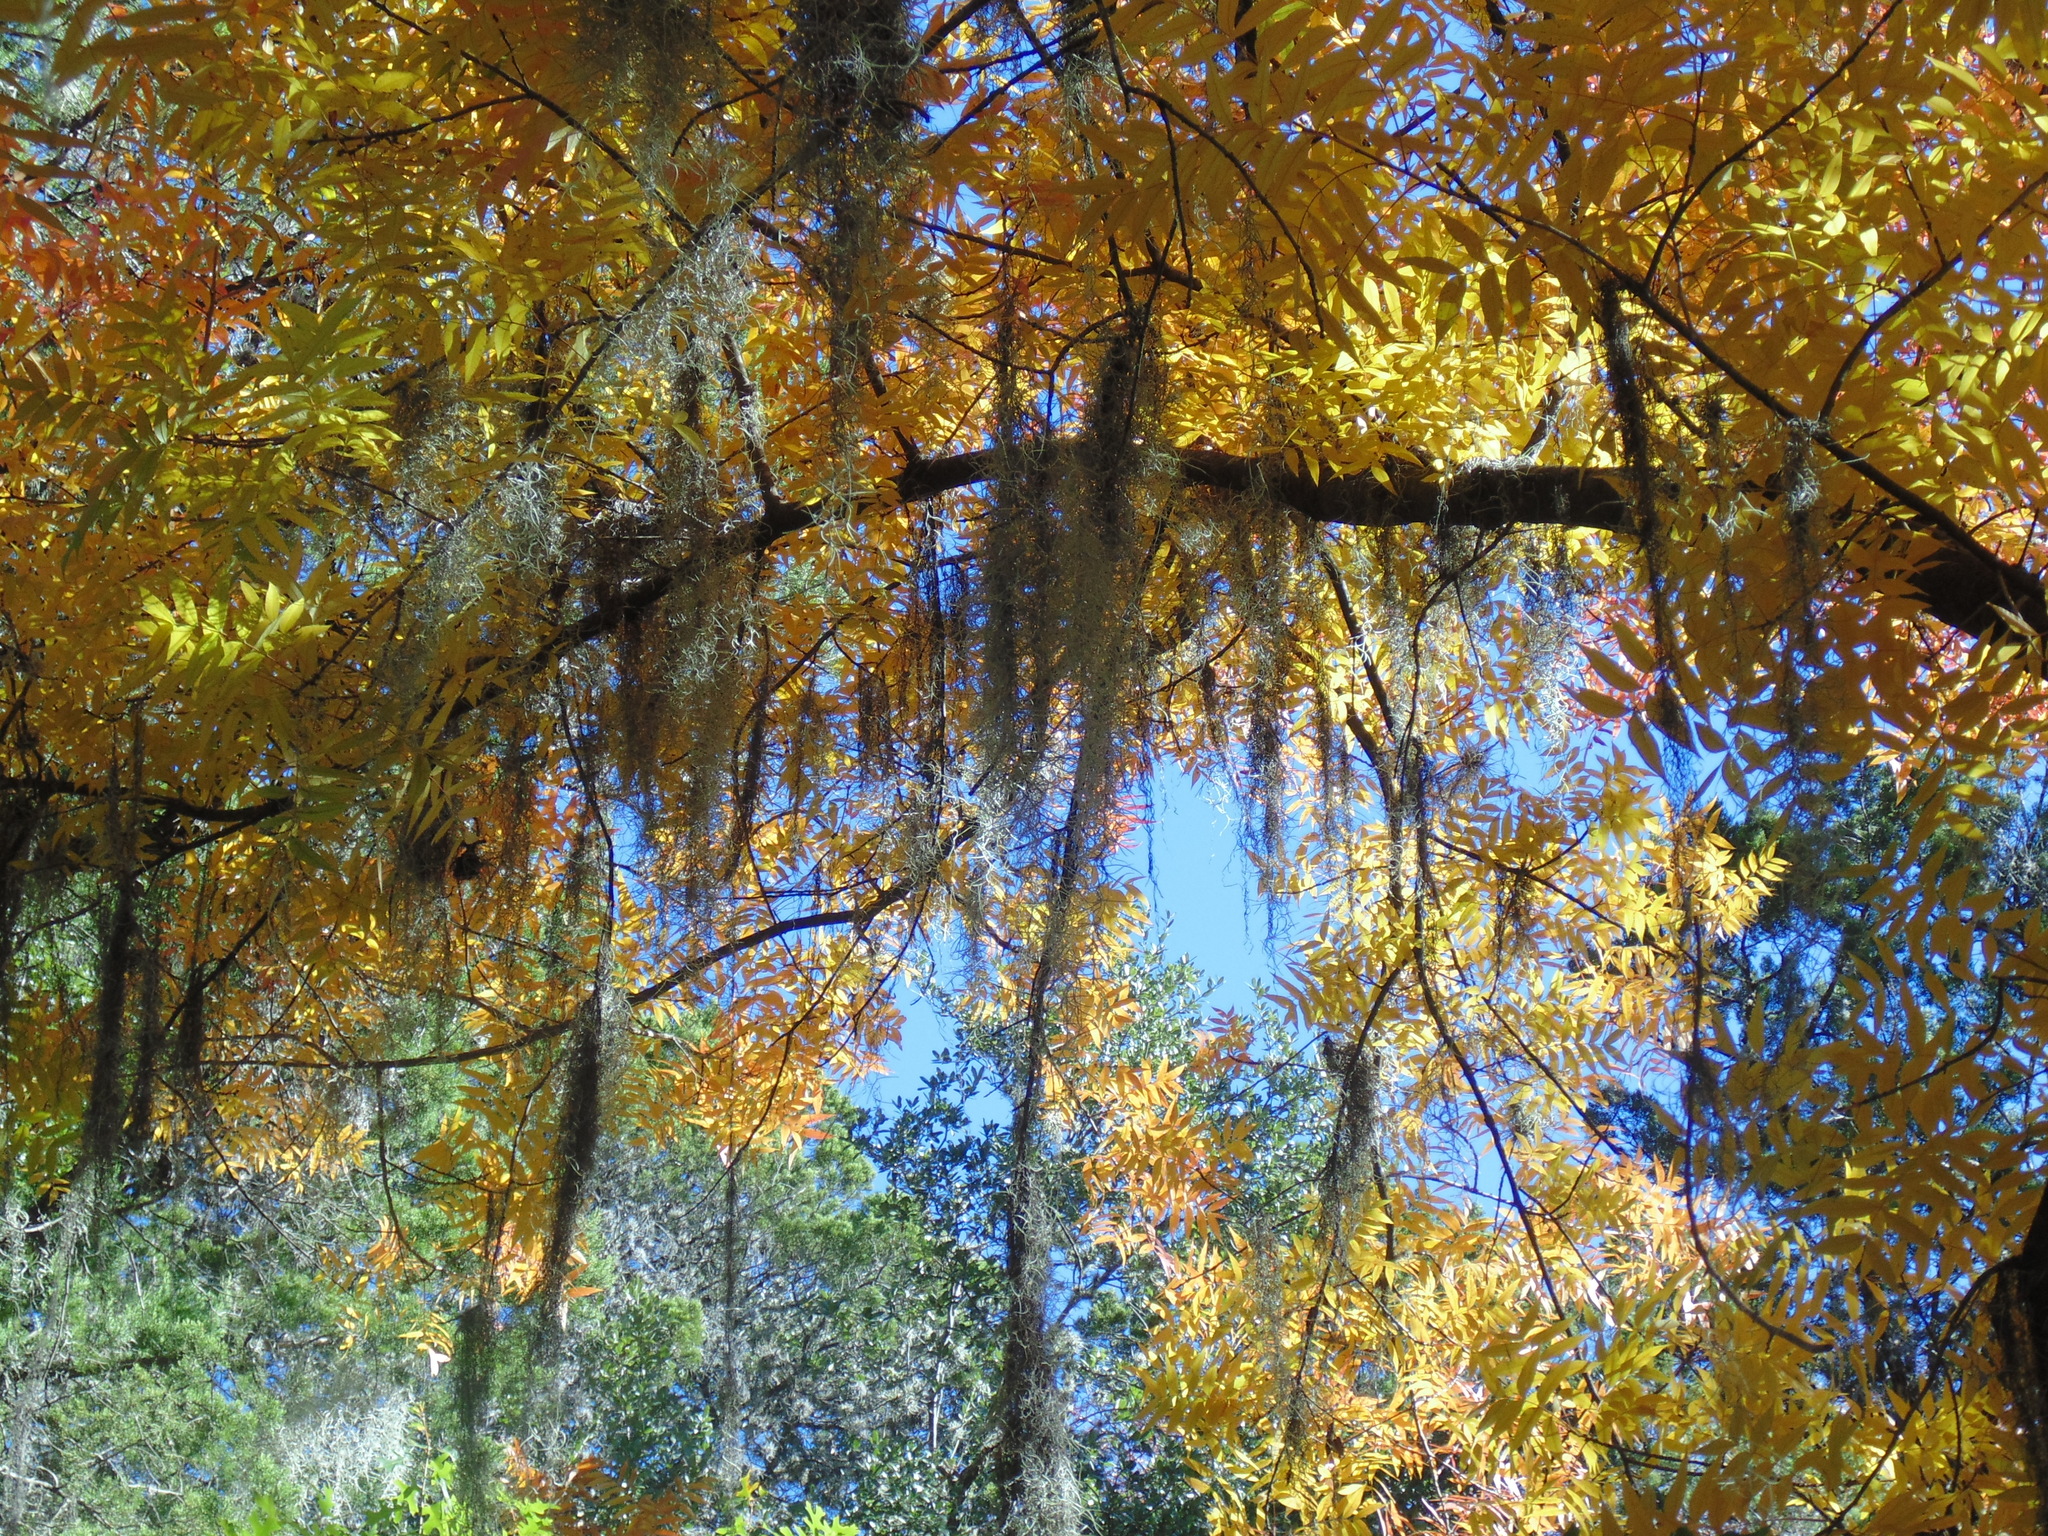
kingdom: Plantae
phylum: Tracheophyta
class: Liliopsida
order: Poales
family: Bromeliaceae
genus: Tillandsia
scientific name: Tillandsia usneoides
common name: Spanish moss
